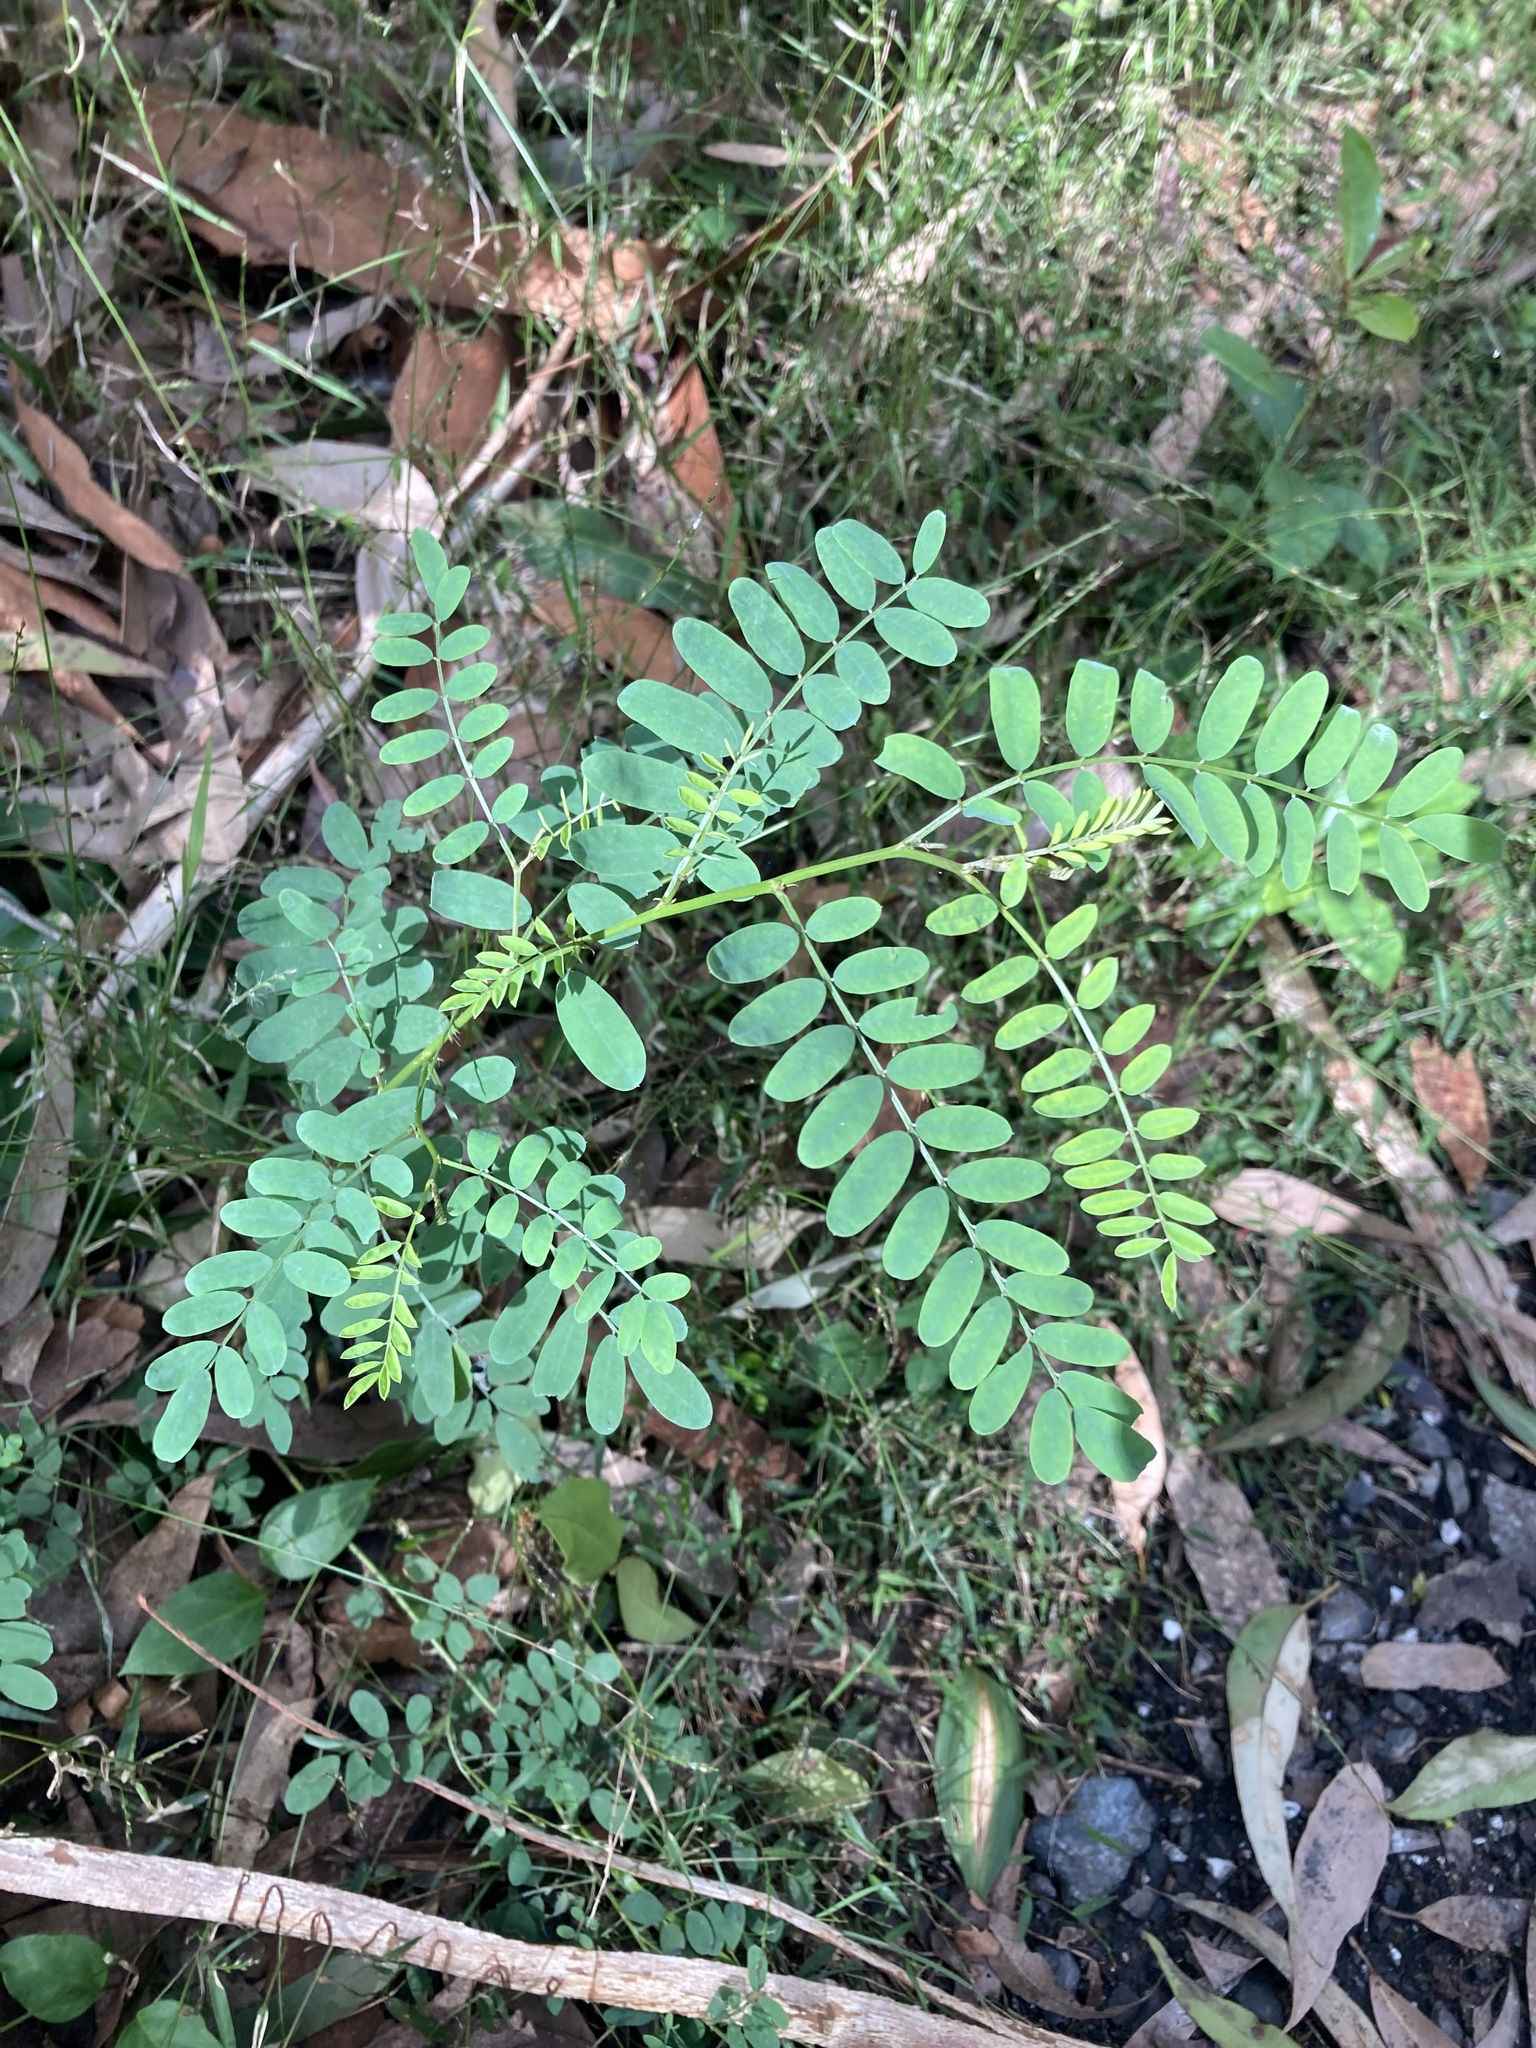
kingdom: Plantae
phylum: Tracheophyta
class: Magnoliopsida
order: Fabales
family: Fabaceae
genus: Indigofera
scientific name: Indigofera australis
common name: Australian indigo
